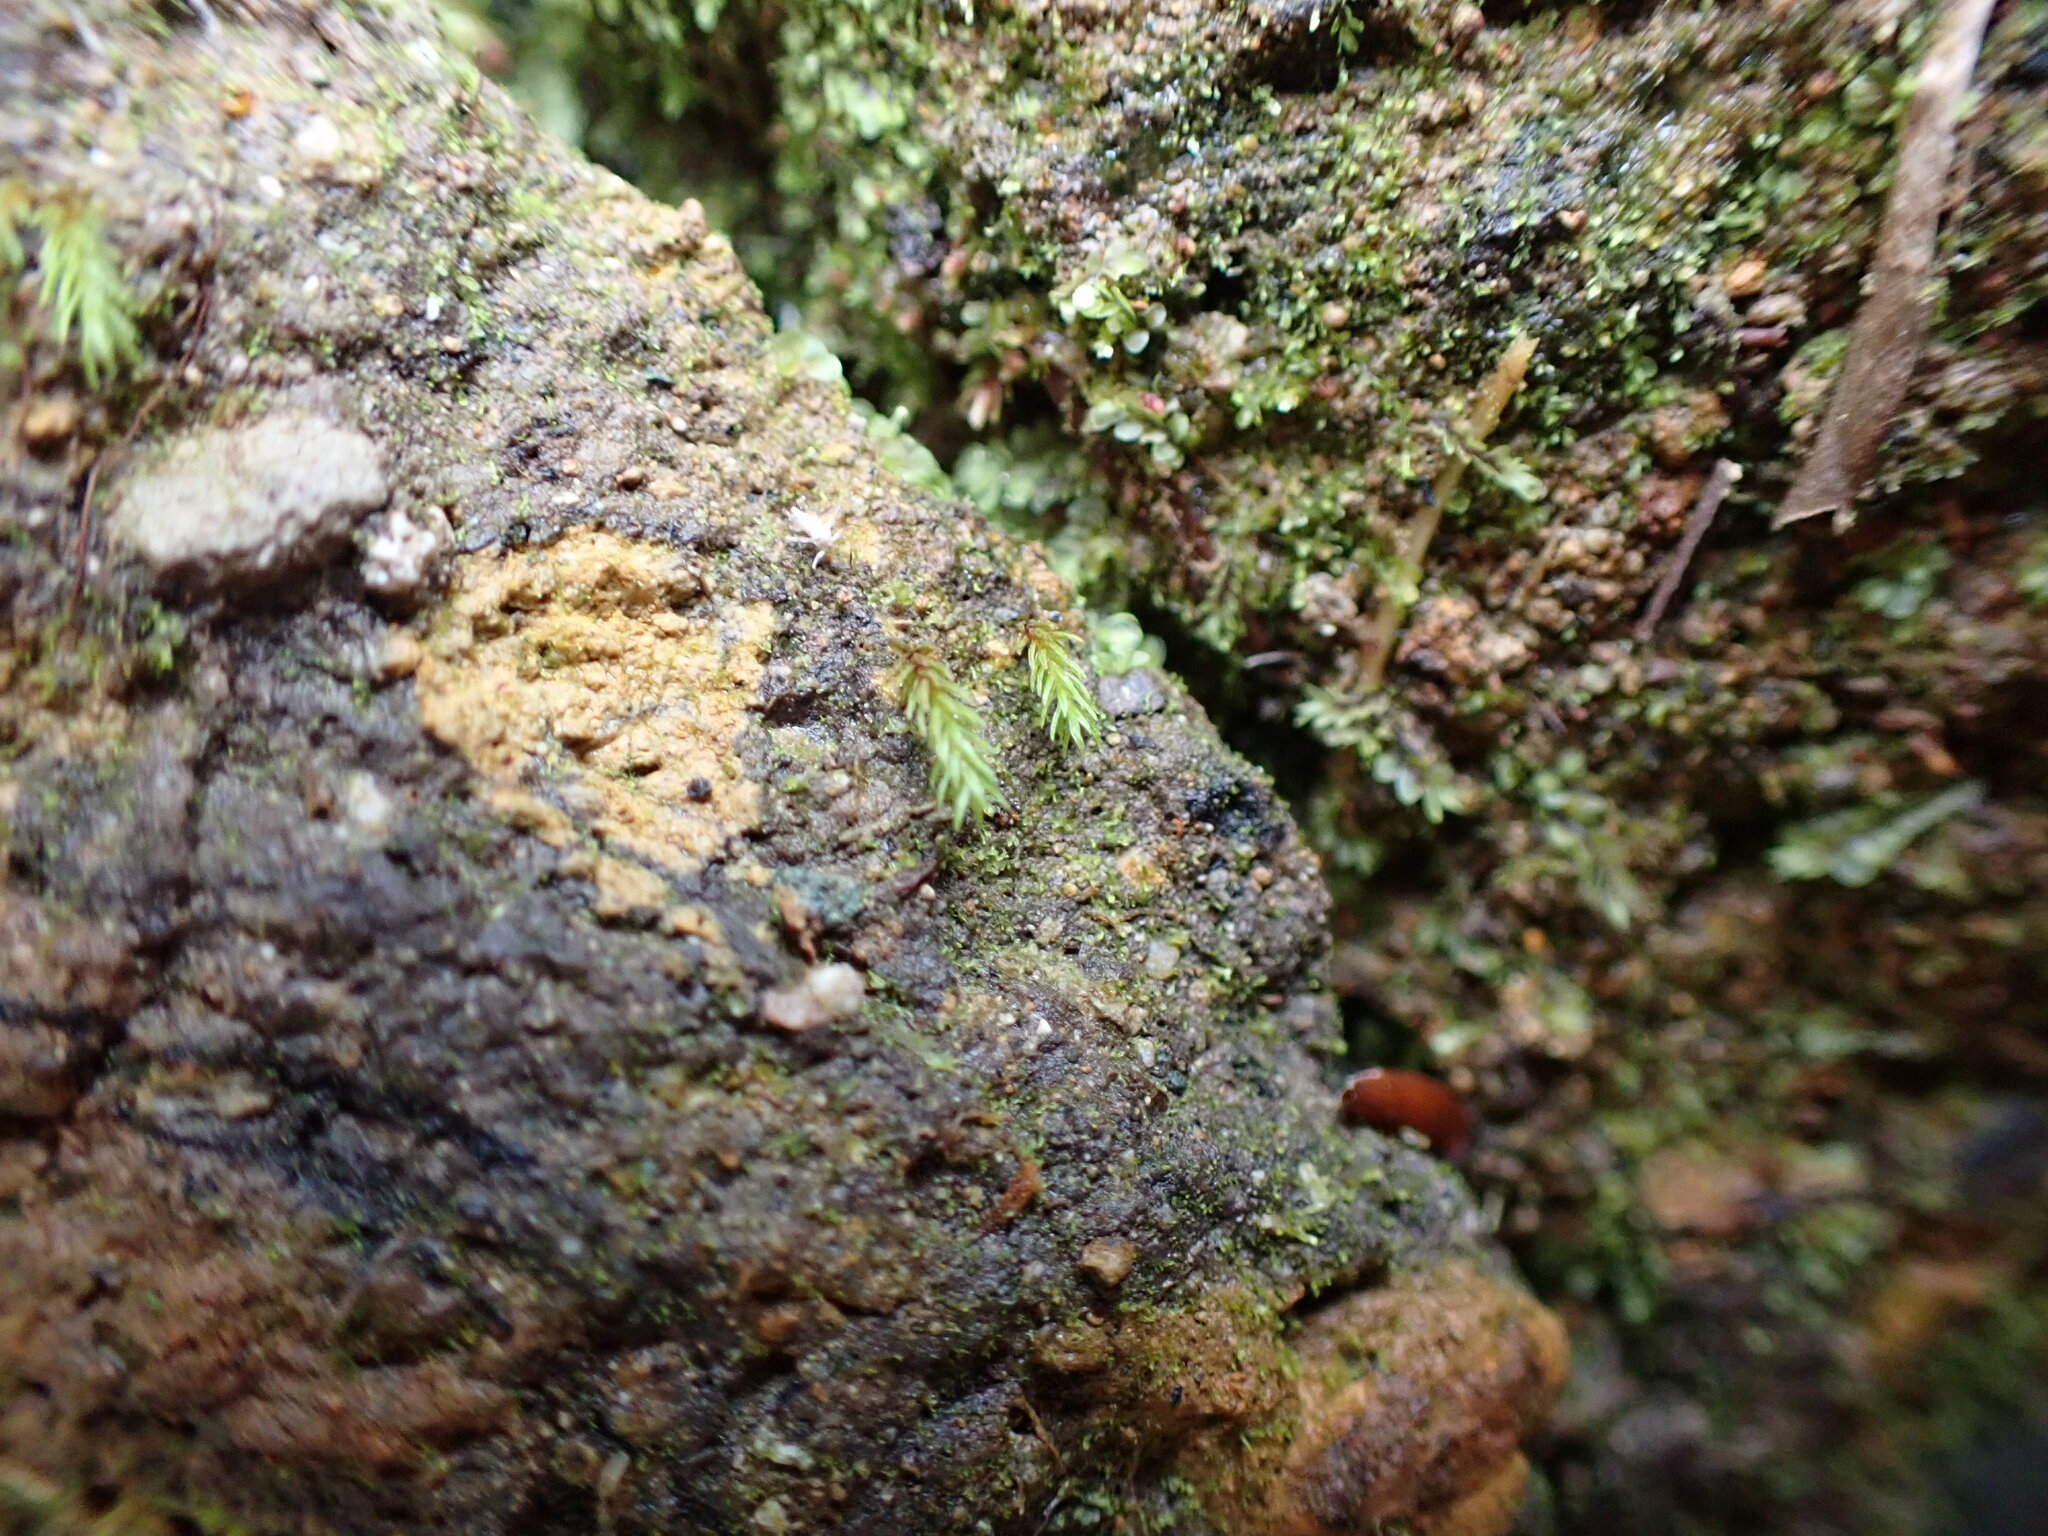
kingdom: Plantae
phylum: Bryophyta
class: Polytrichopsida
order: Polytrichales
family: Polytrichaceae
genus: Oligotrichum
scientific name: Oligotrichum aligerum
